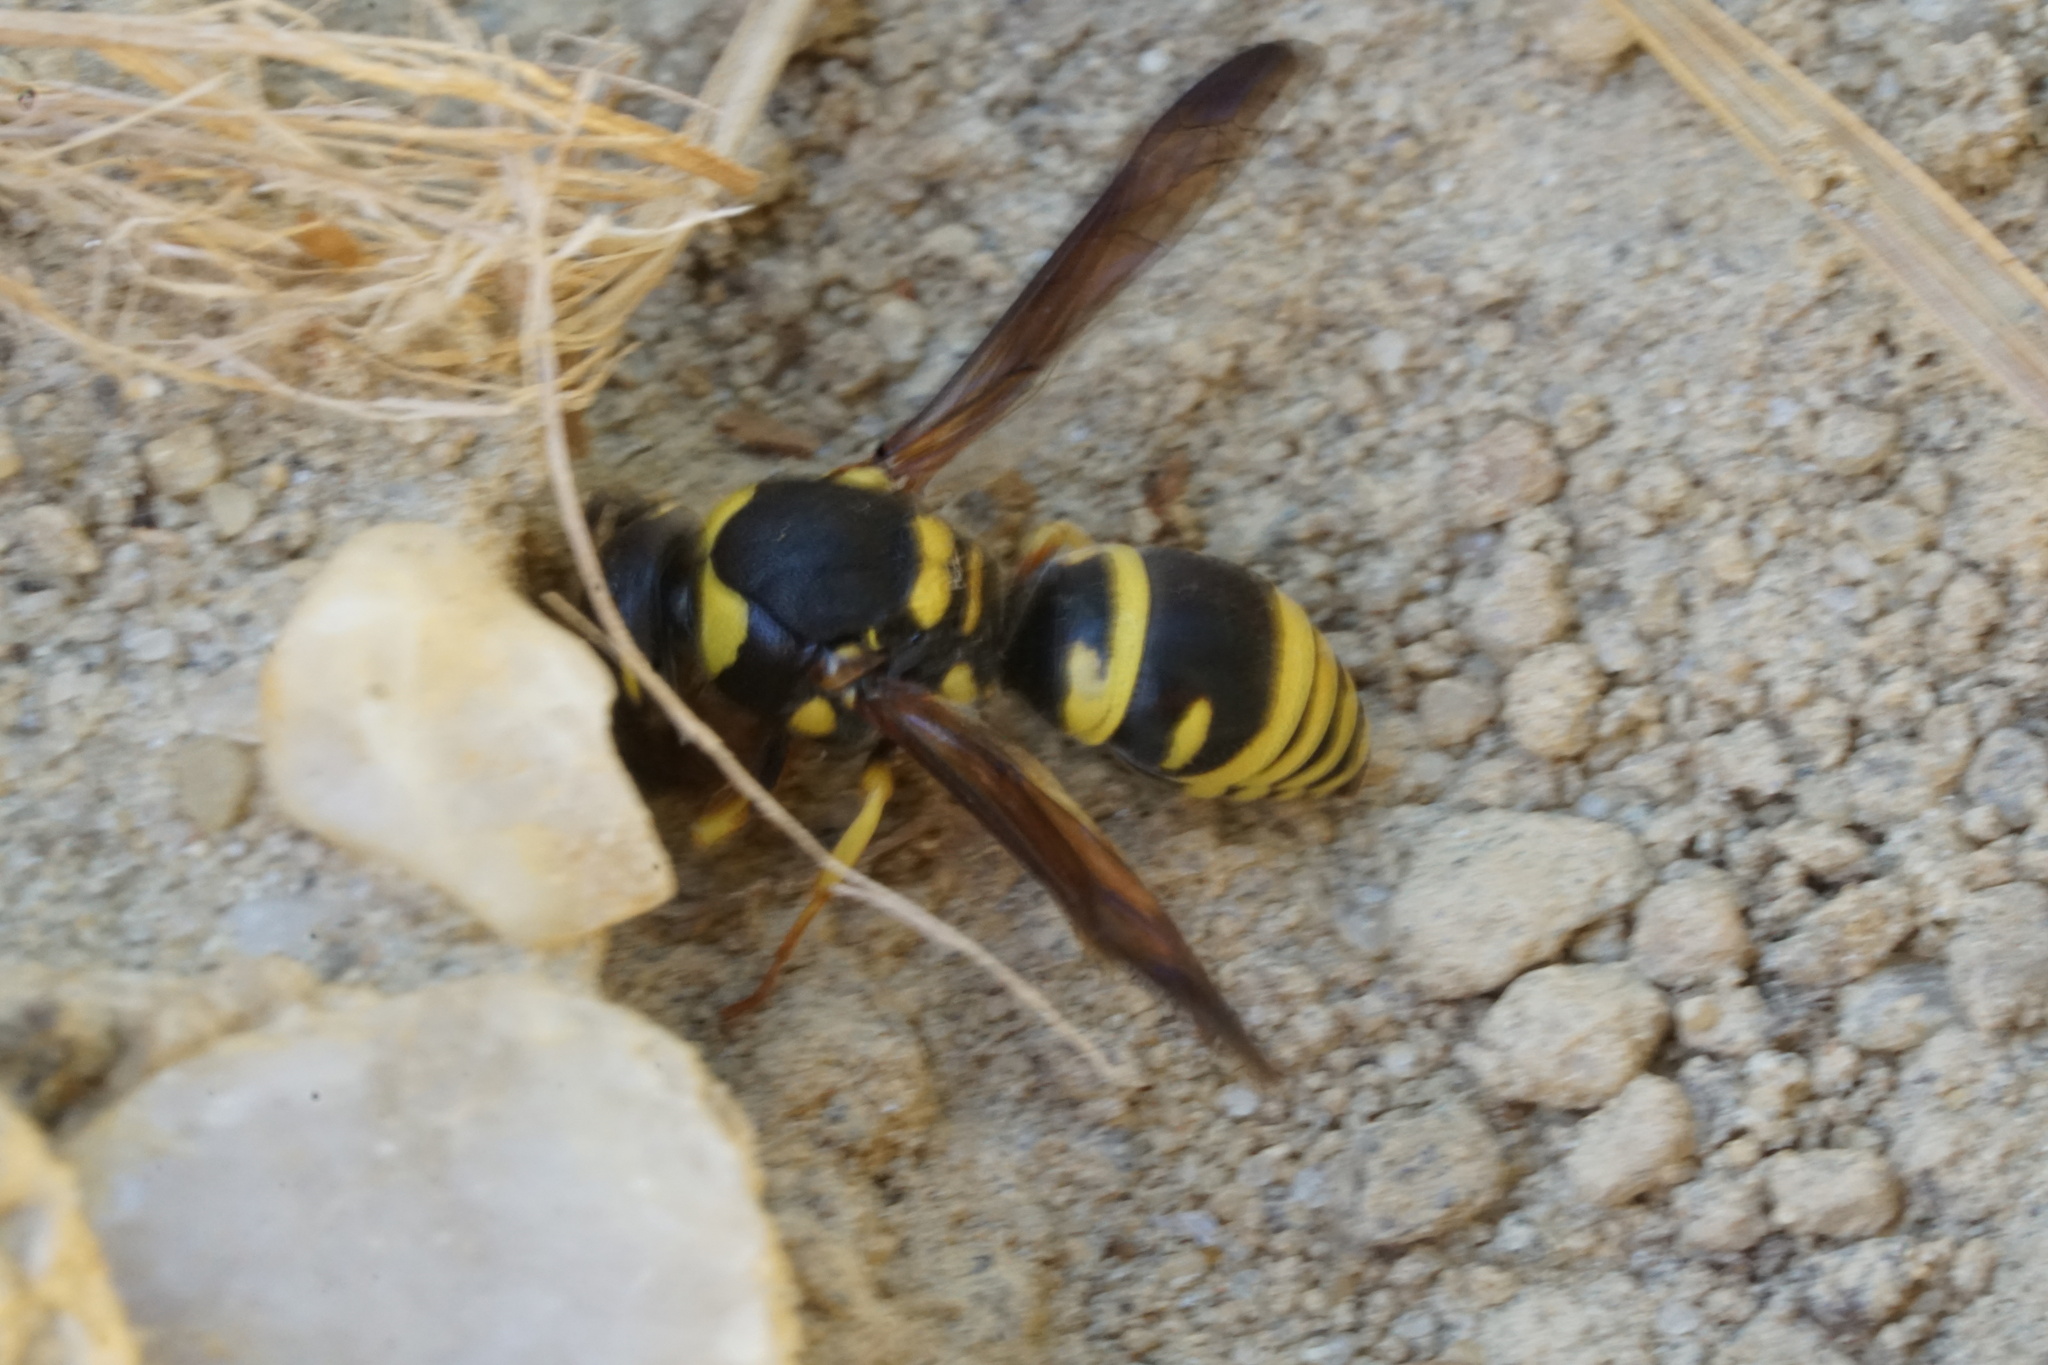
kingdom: Animalia
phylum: Arthropoda
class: Insecta
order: Hymenoptera
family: Vespidae
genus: Ancistrocerus
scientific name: Ancistrocerus lutonidus
